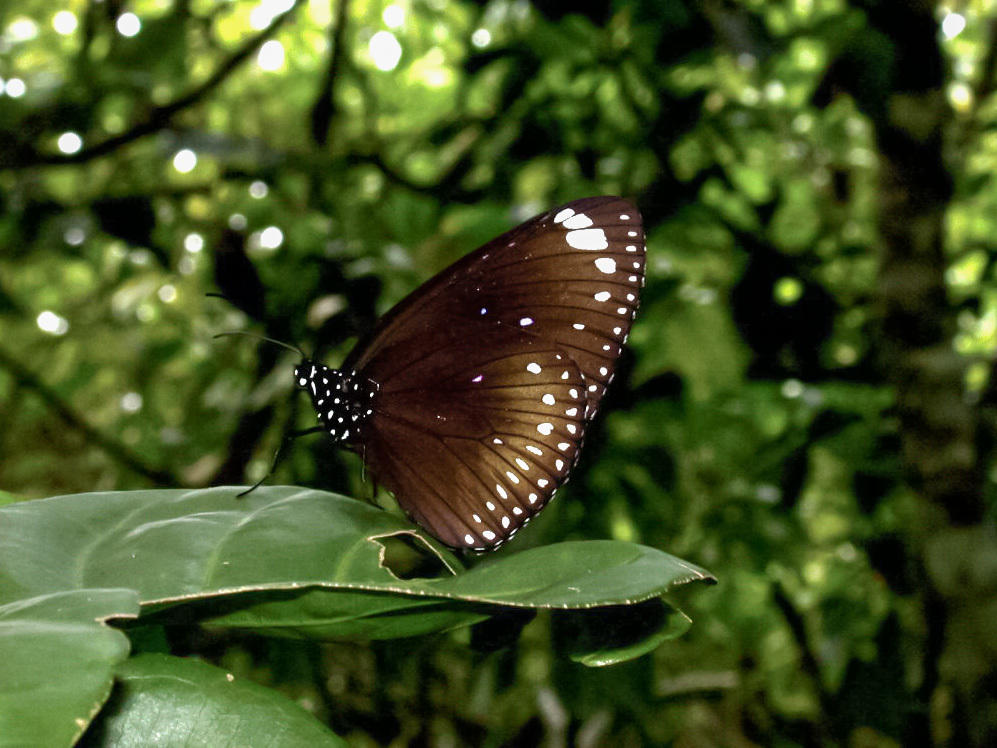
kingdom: Animalia
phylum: Arthropoda
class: Insecta
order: Lepidoptera
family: Nymphalidae
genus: Euploea
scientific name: Euploea midamus
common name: Blue-spotted crow butterfly
